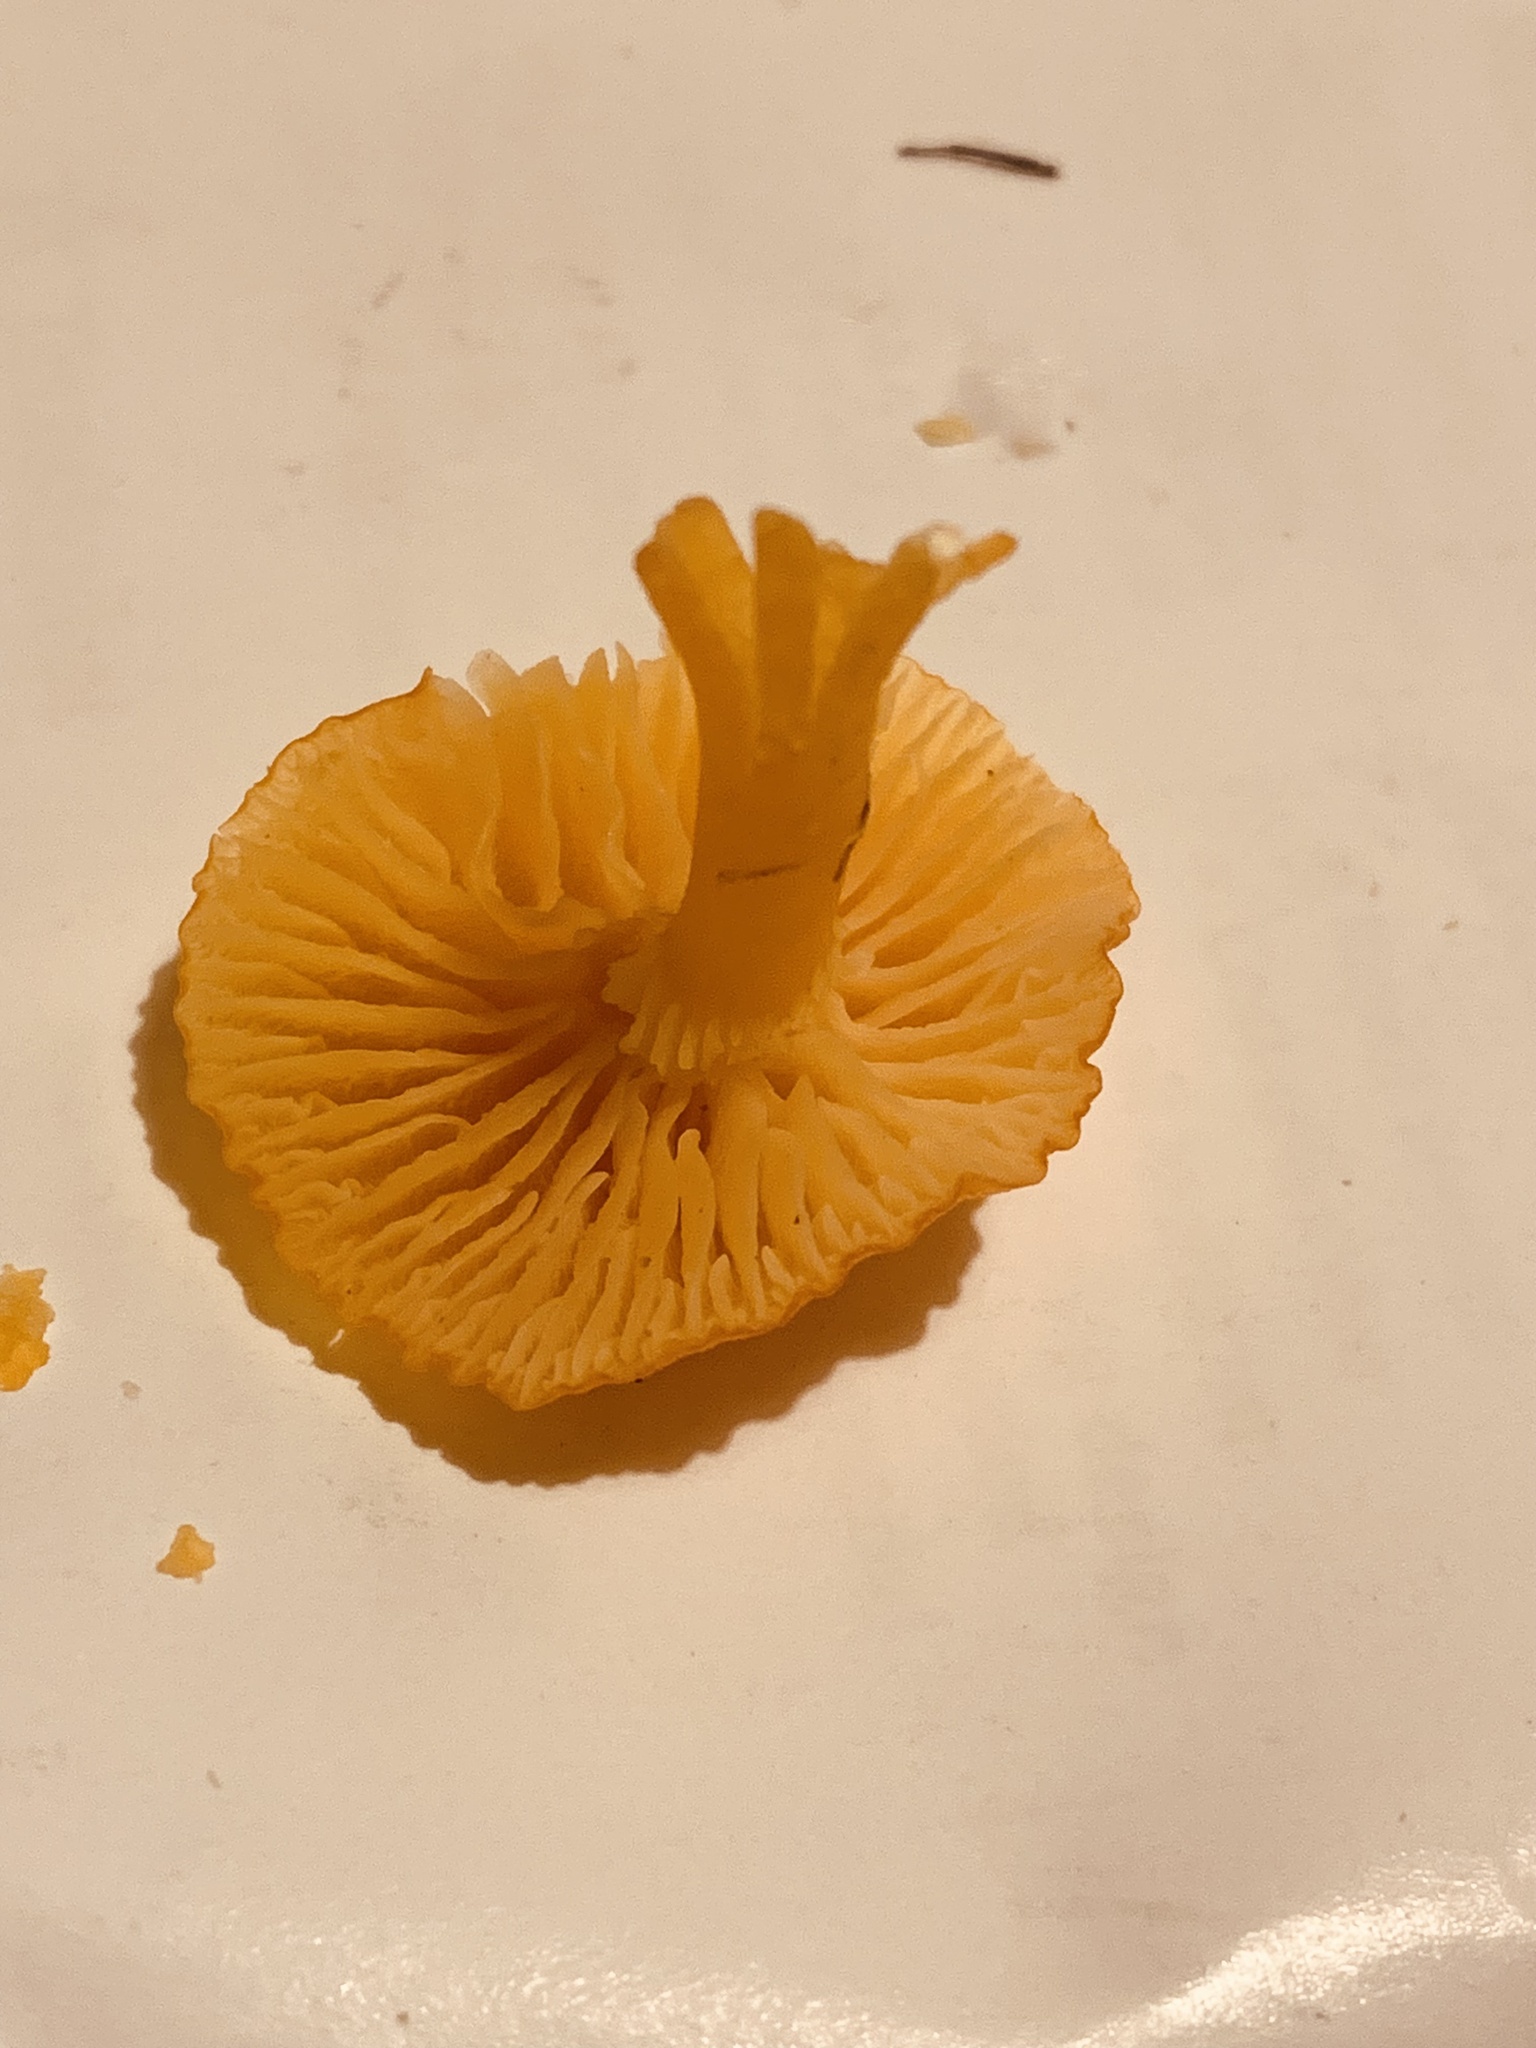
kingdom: Fungi
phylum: Basidiomycota
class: Agaricomycetes
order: Agaricales
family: Hygrophoraceae
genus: Hygrocybe
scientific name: Hygrocybe ceracea
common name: Butter waxcap
